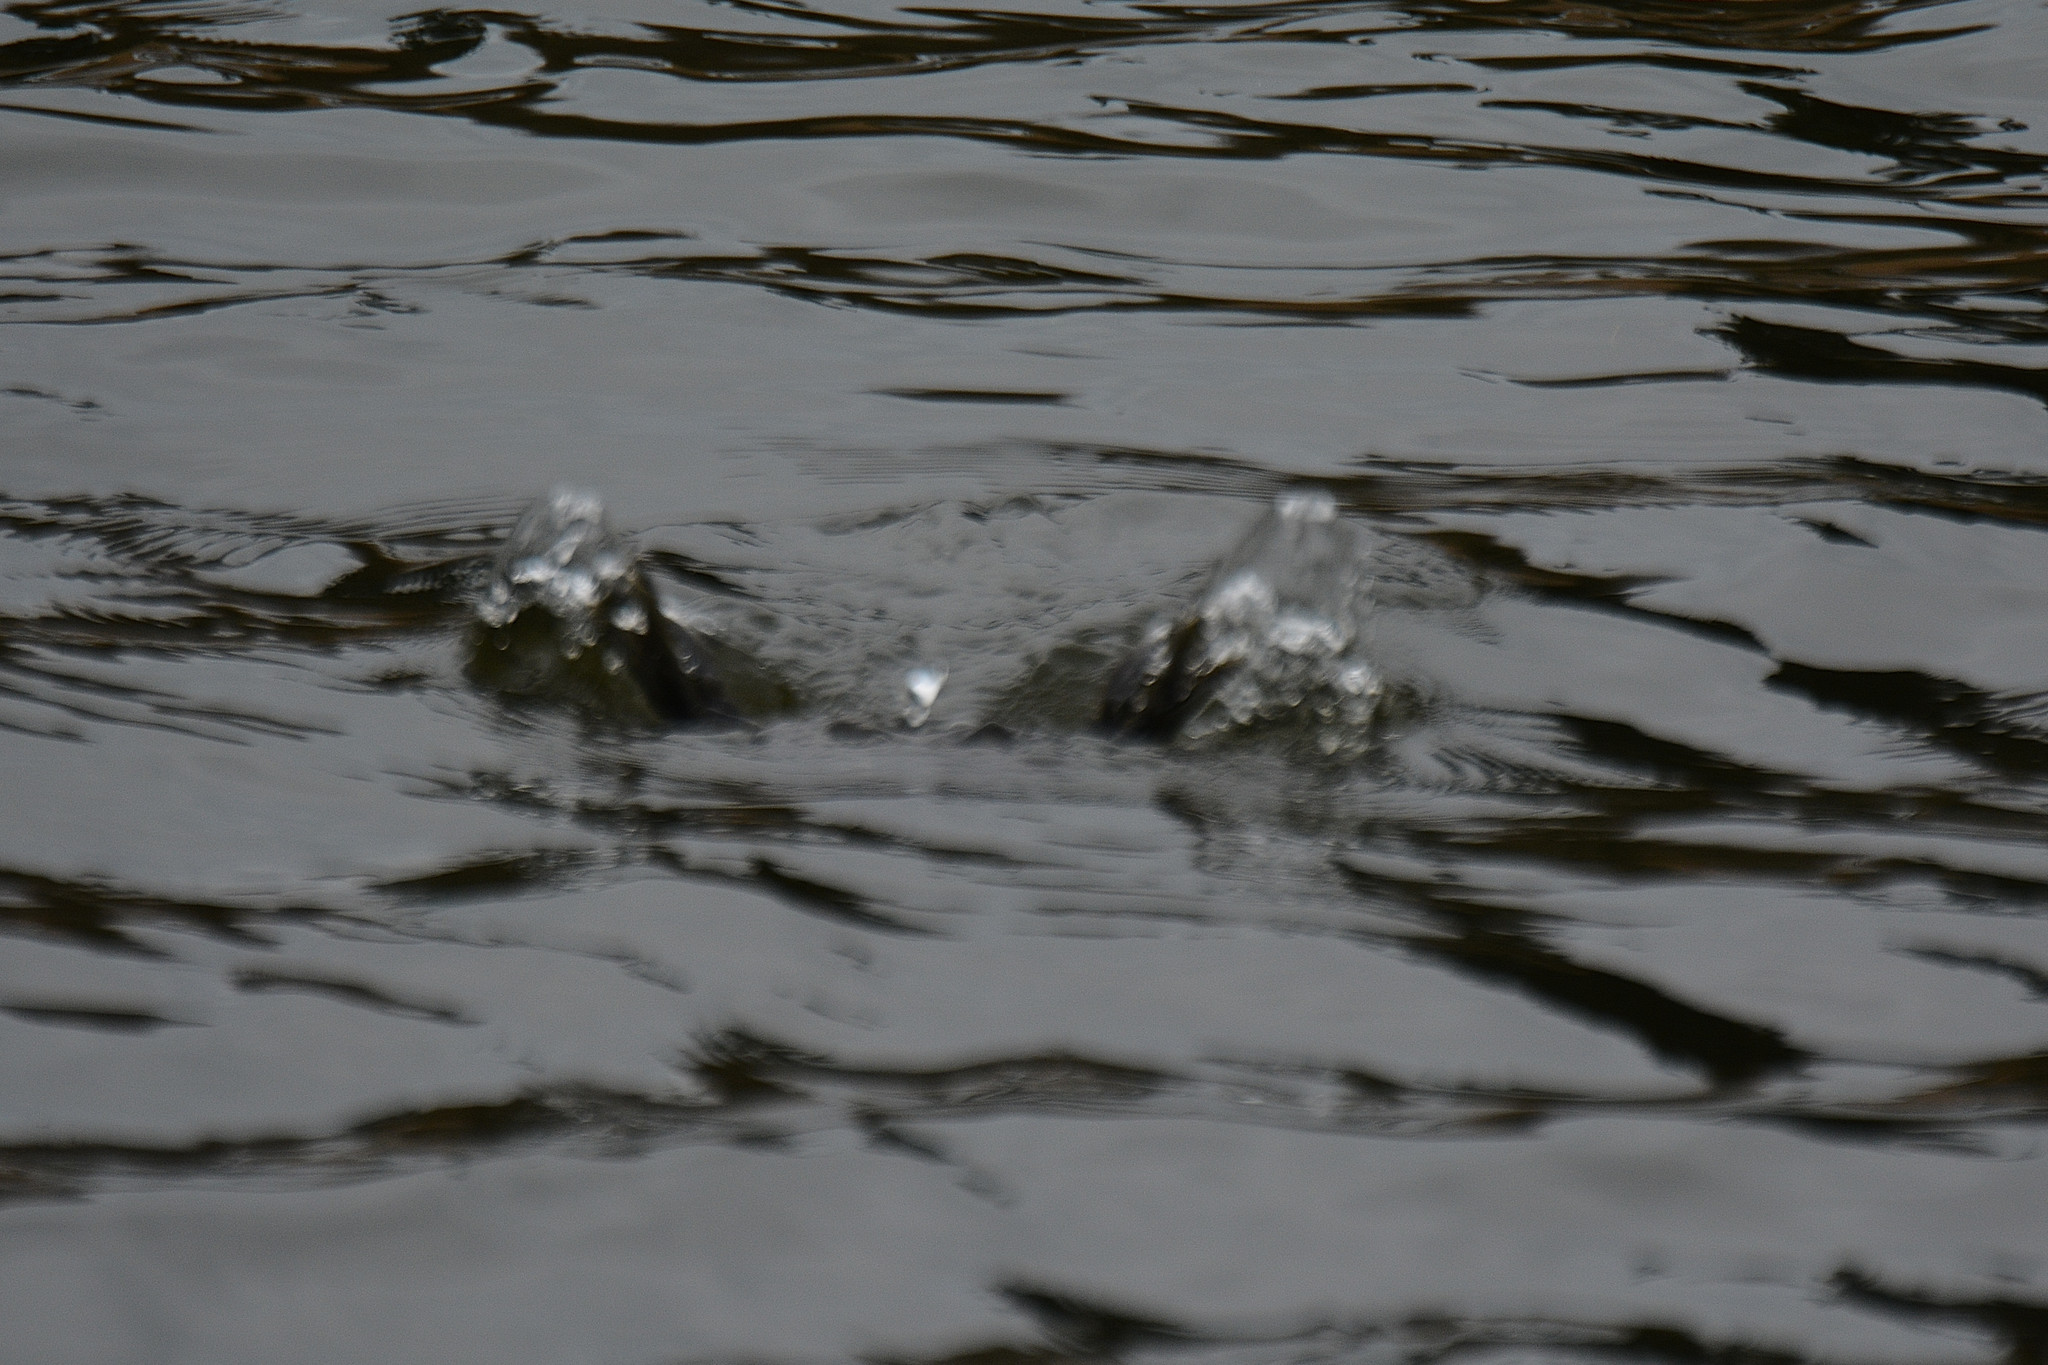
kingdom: Animalia
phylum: Chordata
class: Aves
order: Podicipediformes
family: Podicipedidae
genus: Tachybaptus
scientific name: Tachybaptus ruficollis
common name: Little grebe
